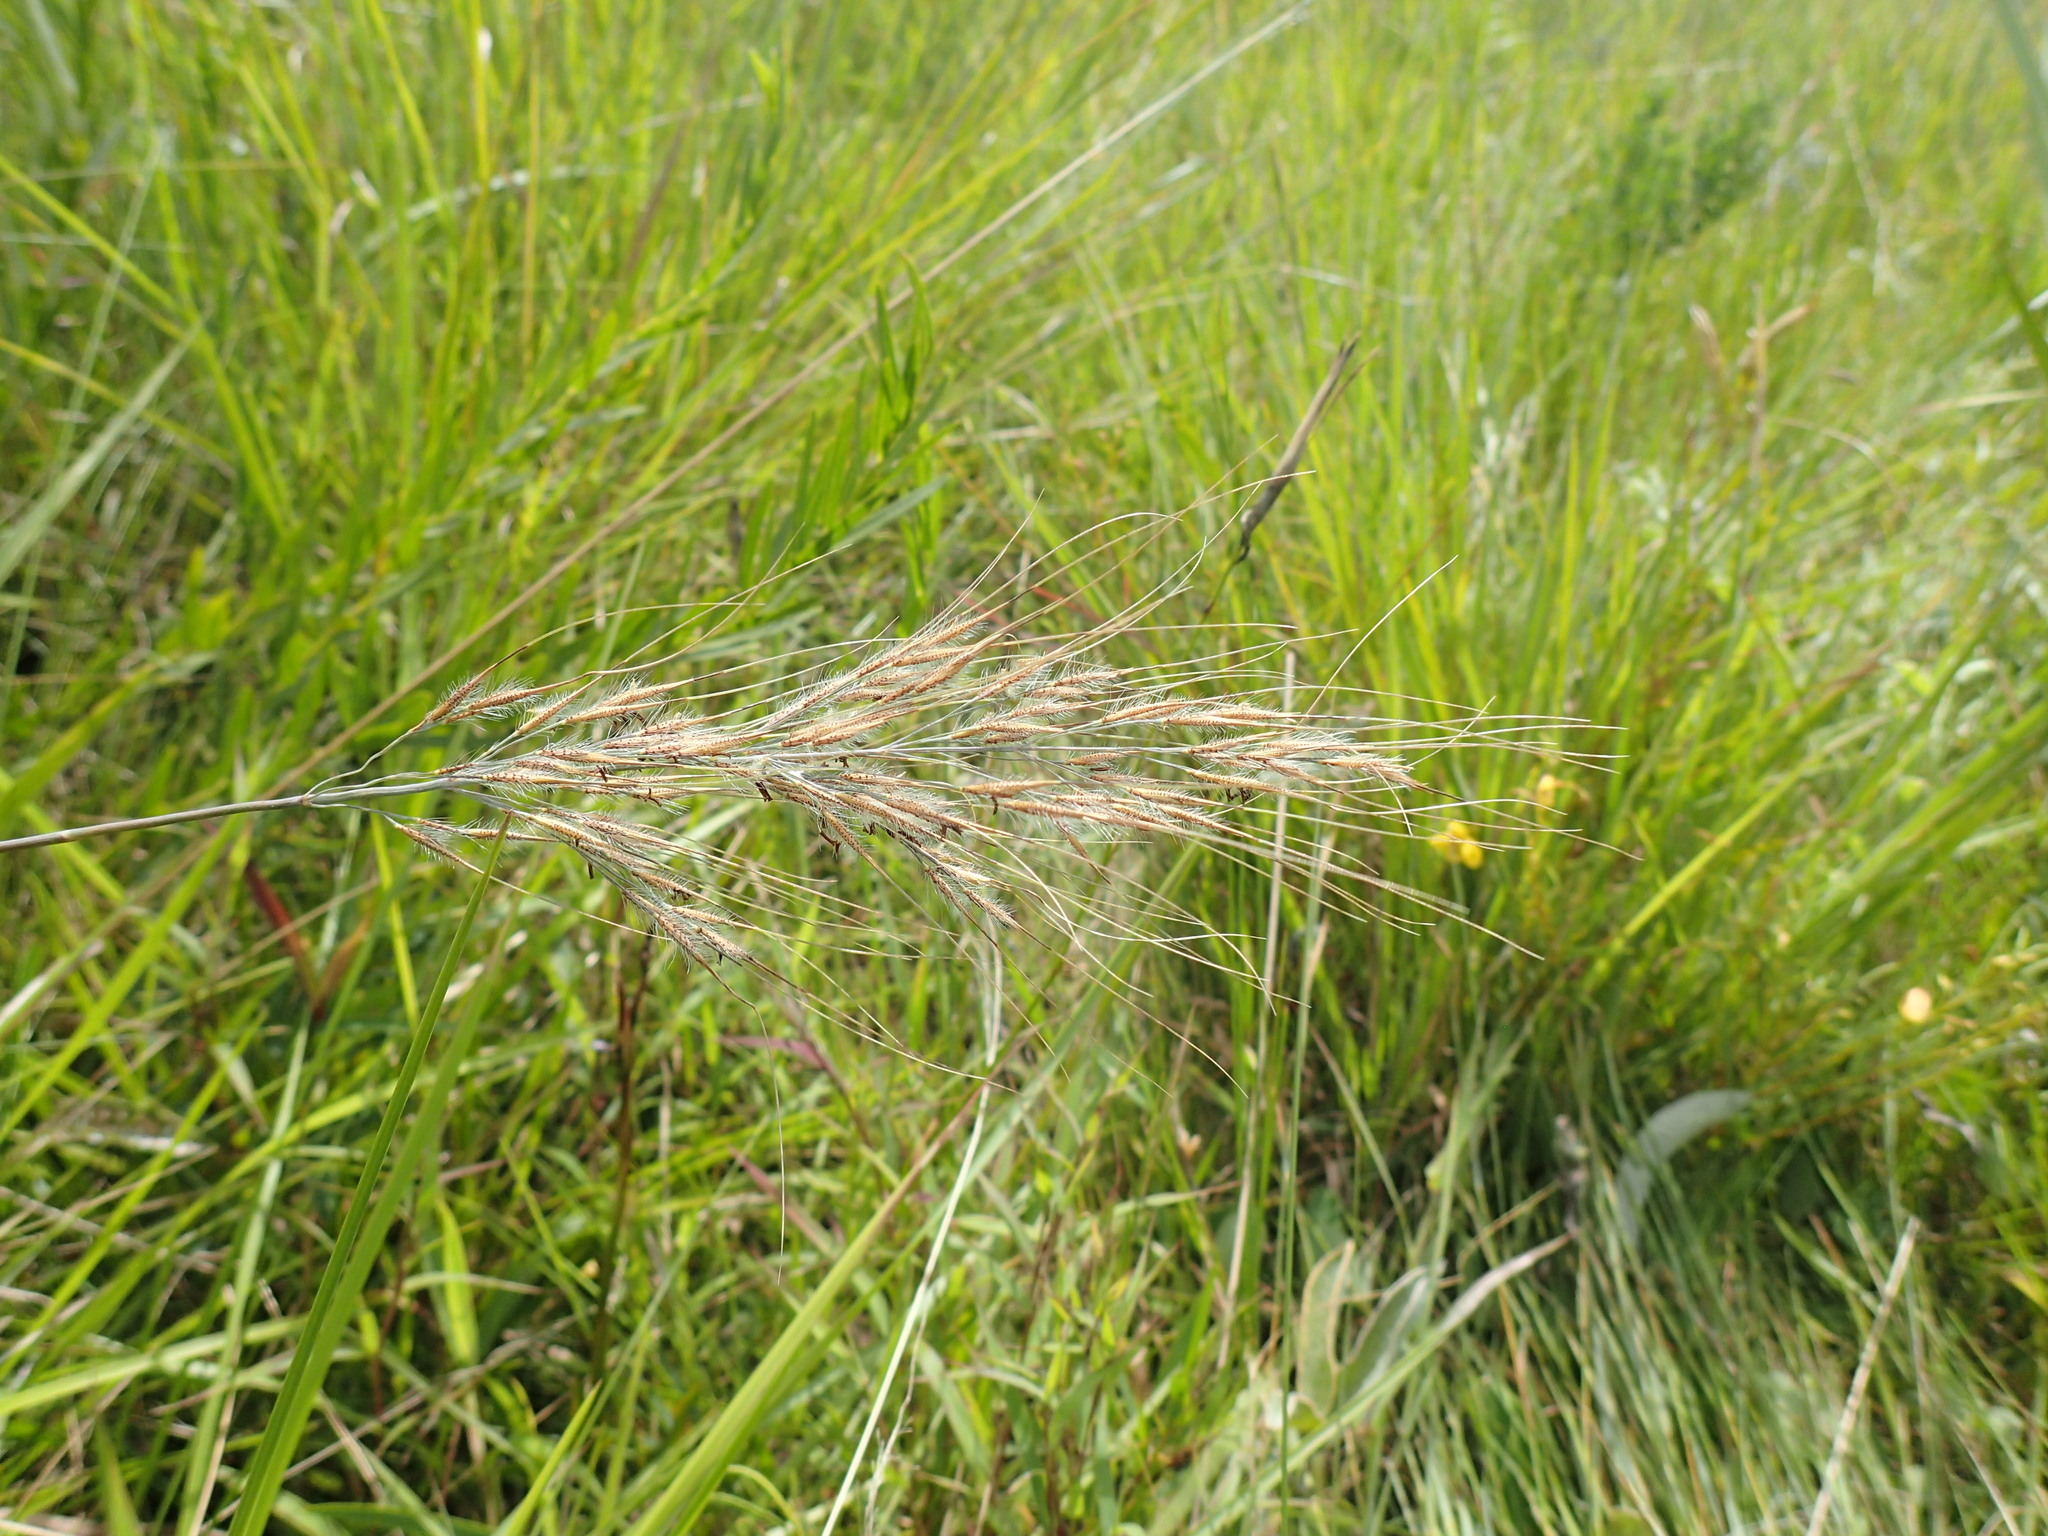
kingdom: Plantae
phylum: Tracheophyta
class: Liliopsida
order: Poales
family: Poaceae
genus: Loudetia
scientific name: Loudetia simplex
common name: Common russet grass
